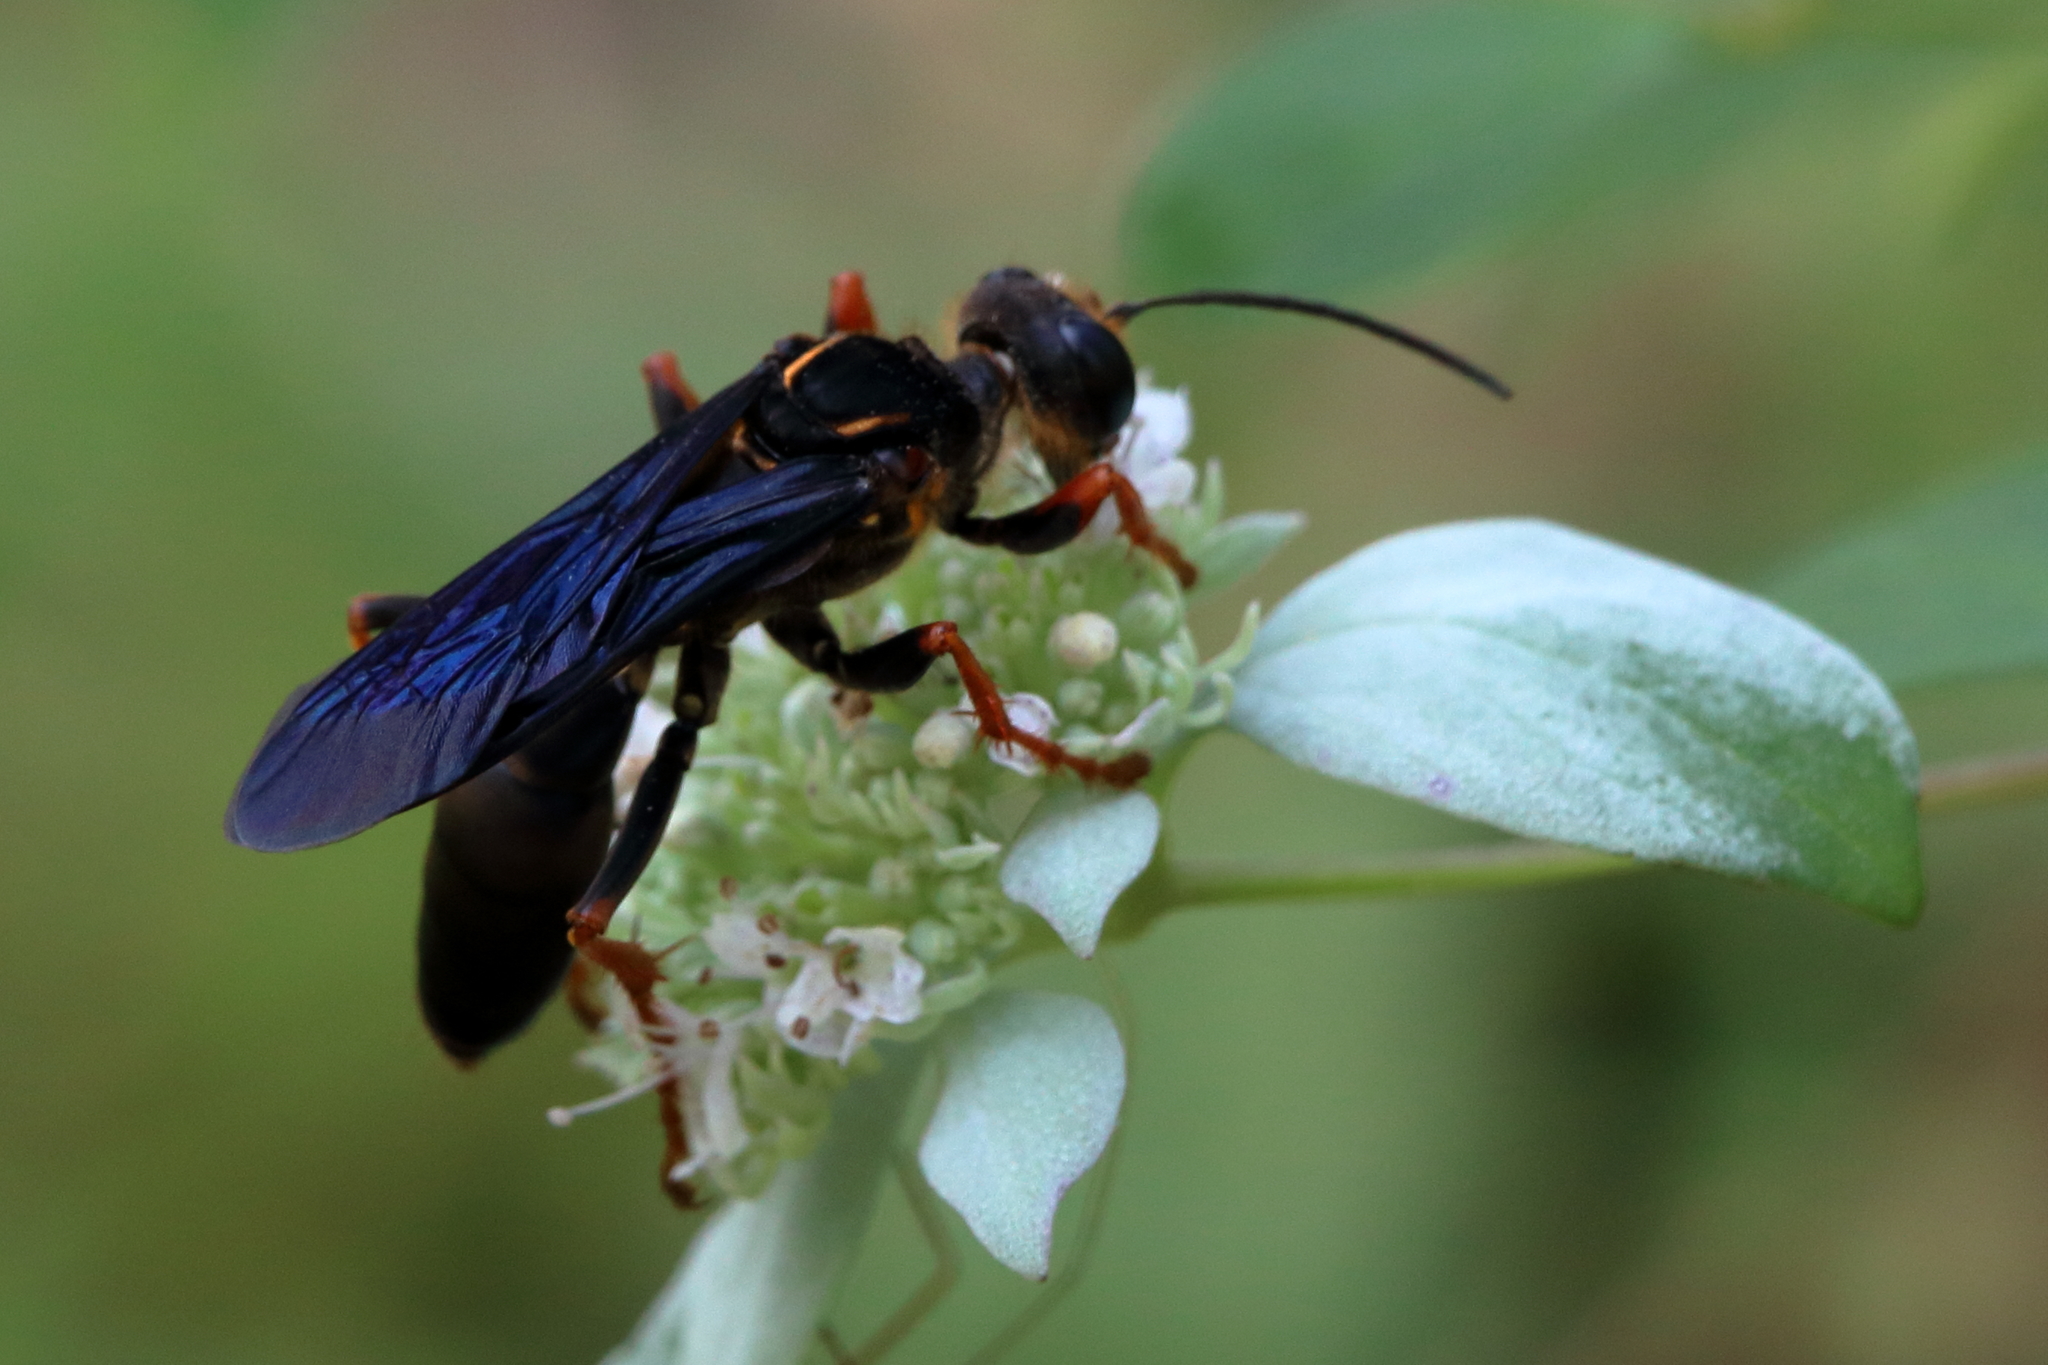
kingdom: Animalia
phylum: Arthropoda
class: Insecta
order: Hymenoptera
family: Sphecidae
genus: Sphex
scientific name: Sphex flavovestitus
